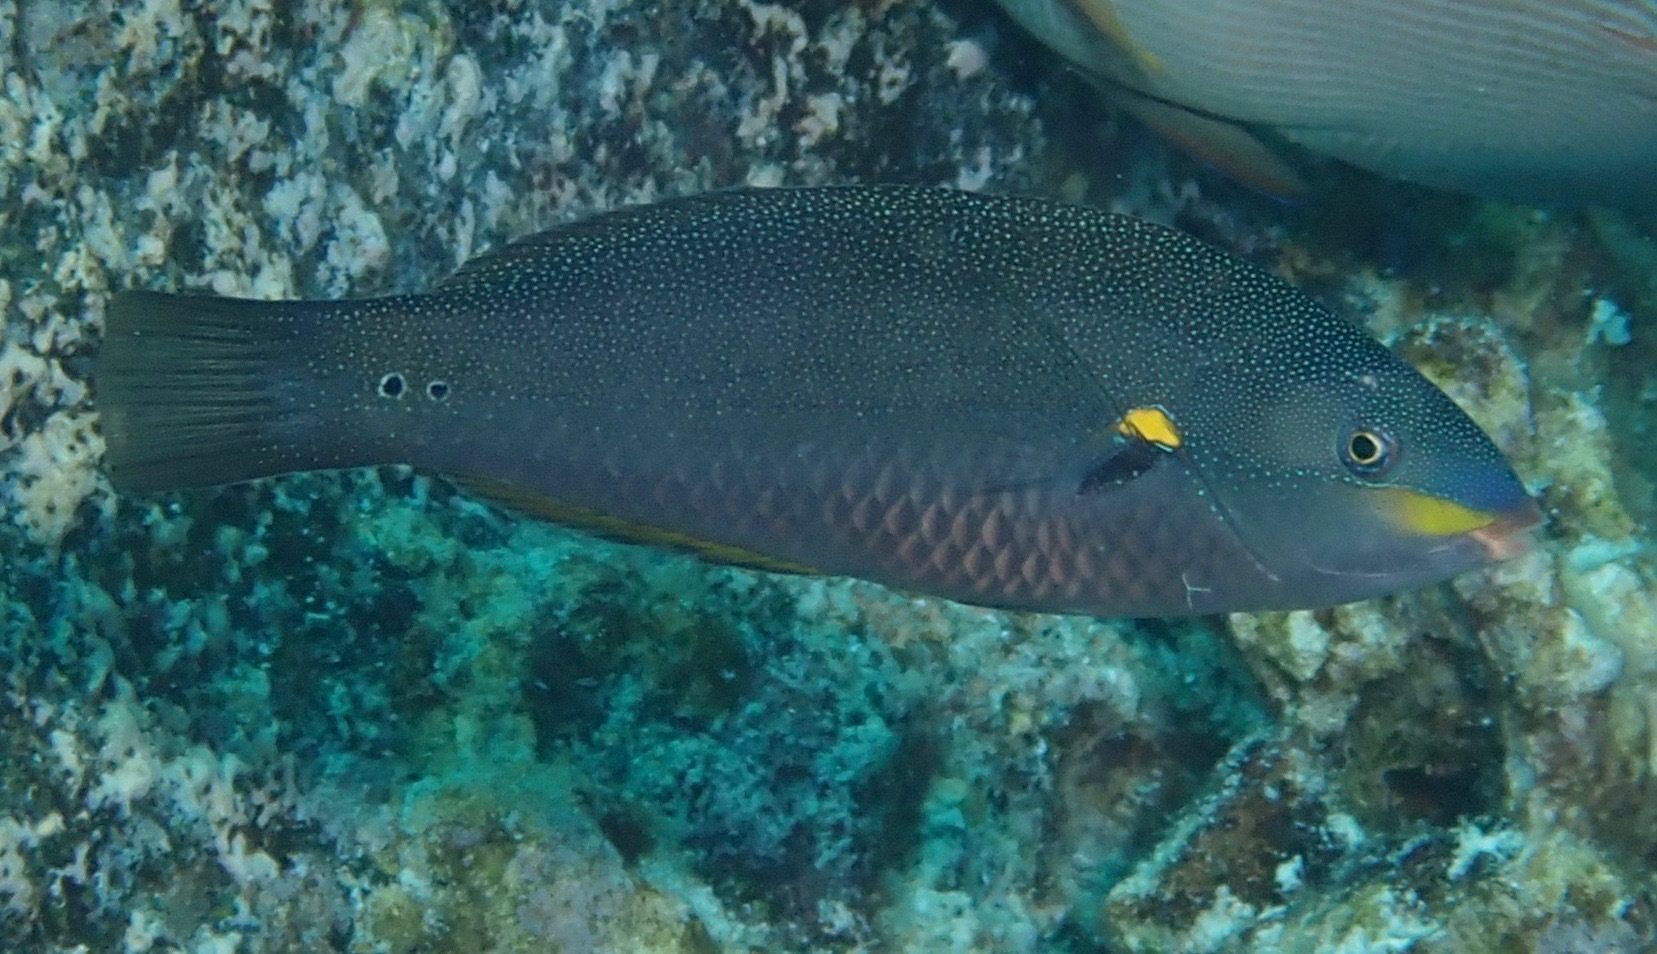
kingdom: Animalia
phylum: Chordata
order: Perciformes
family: Labridae
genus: Stethojulis
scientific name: Stethojulis balteata
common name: Belted wrasse
